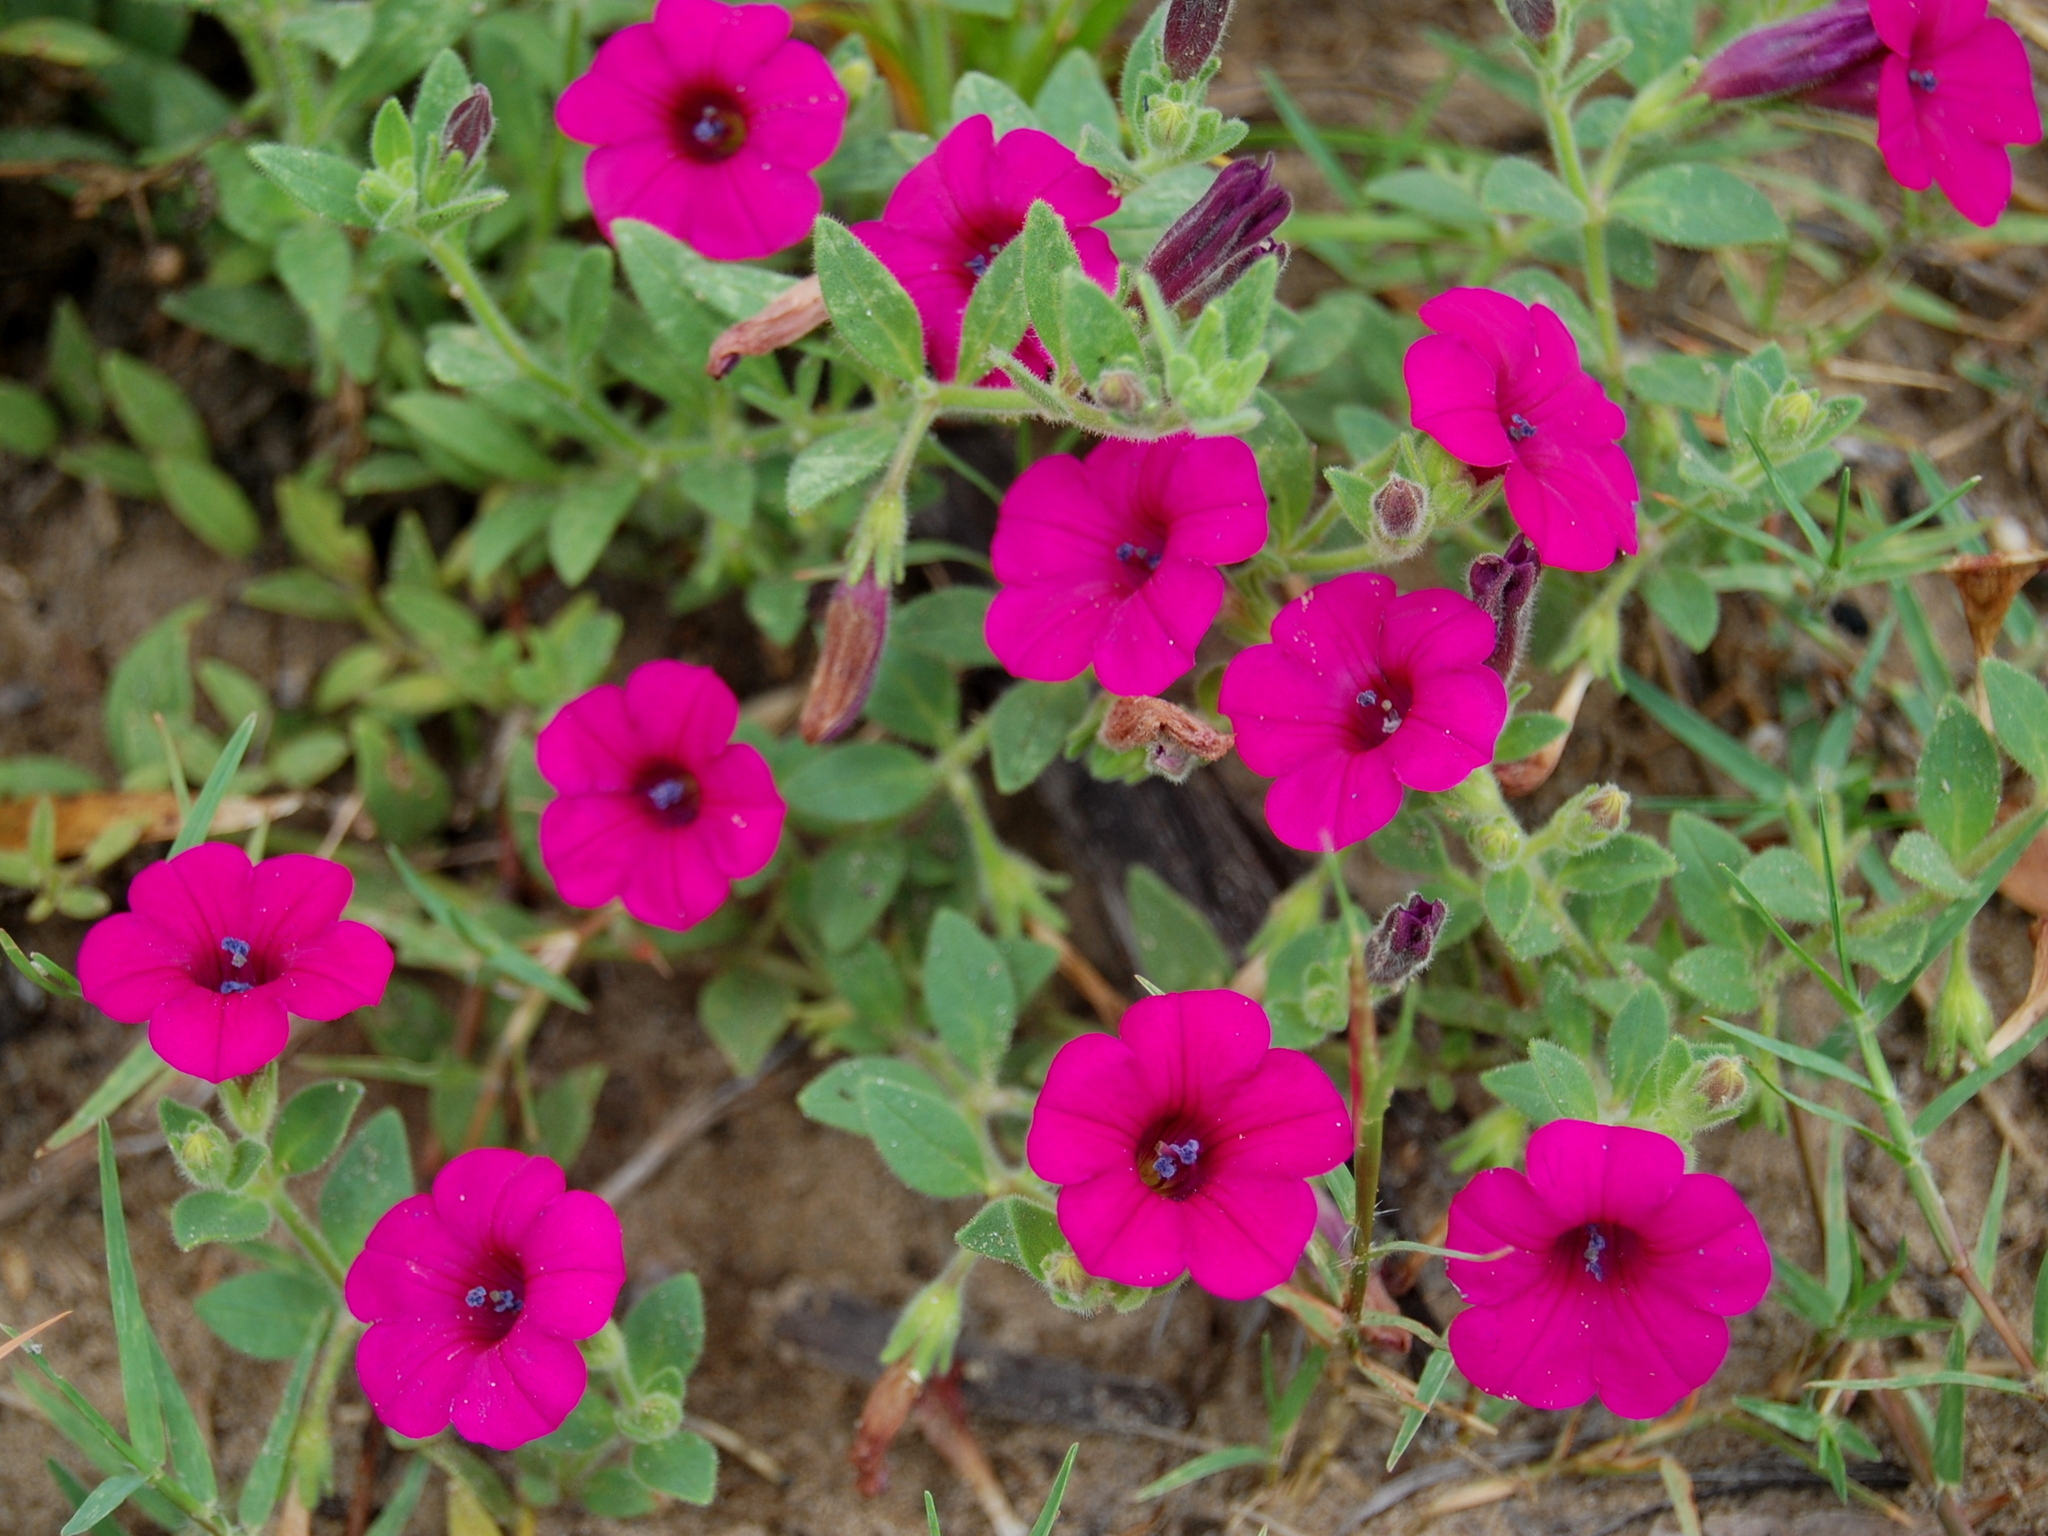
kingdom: Plantae
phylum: Tracheophyta
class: Magnoliopsida
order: Solanales
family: Solanaceae
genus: Petunia
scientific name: Petunia integrifolia
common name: Violet-flower petunia
